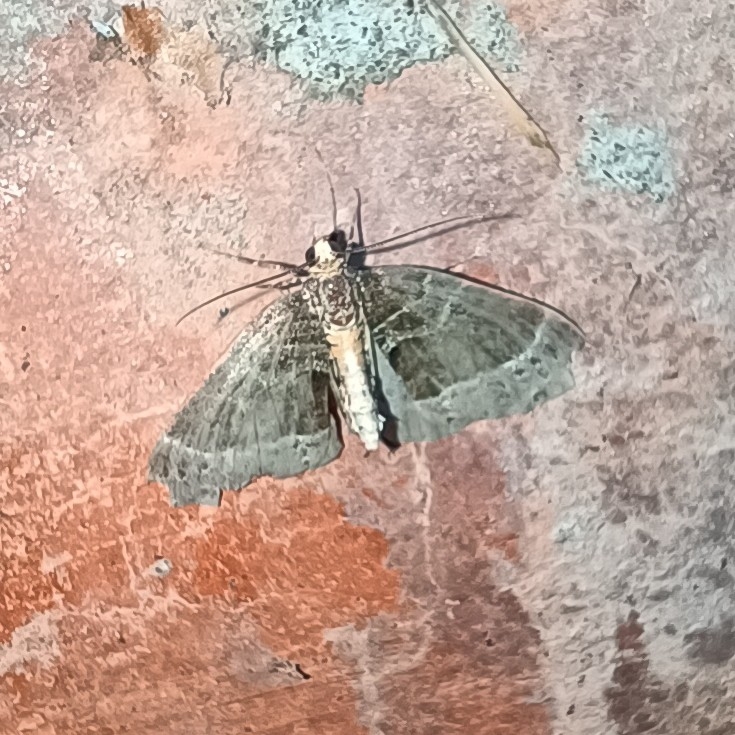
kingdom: Animalia
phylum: Arthropoda
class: Insecta
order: Lepidoptera
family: Geometridae
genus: Ecliptopera
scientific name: Ecliptopera silaceata
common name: Small phoenix
